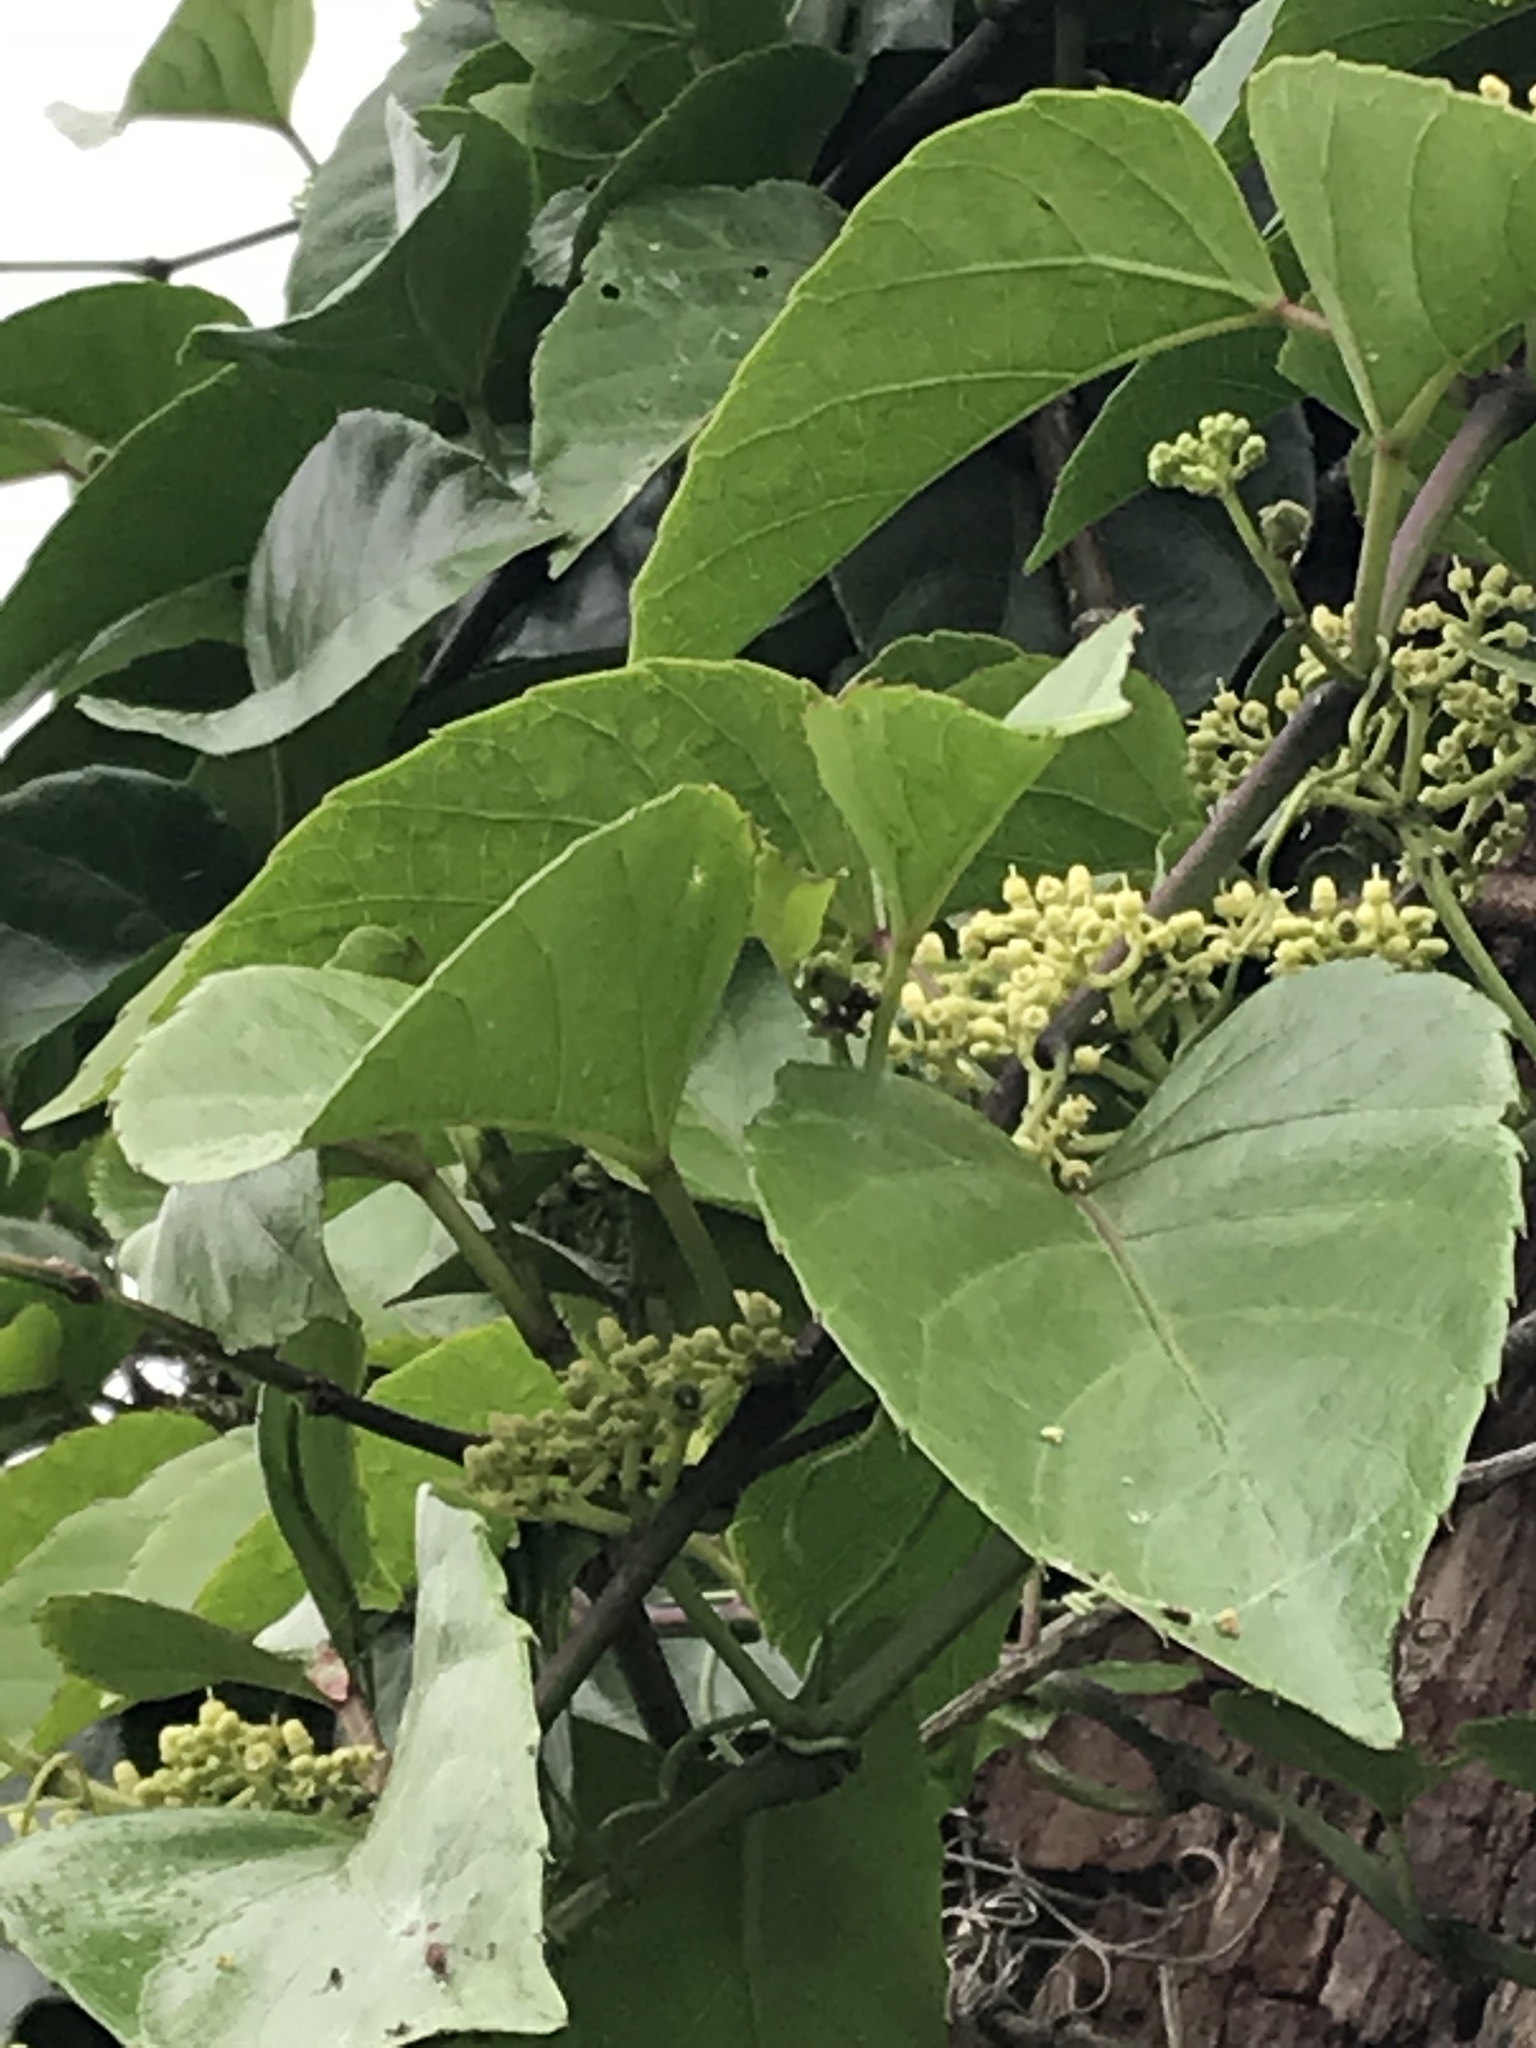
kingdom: Plantae
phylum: Tracheophyta
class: Magnoliopsida
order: Vitales
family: Vitaceae
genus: Cissus
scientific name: Cissus verticillata
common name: Princess vine
